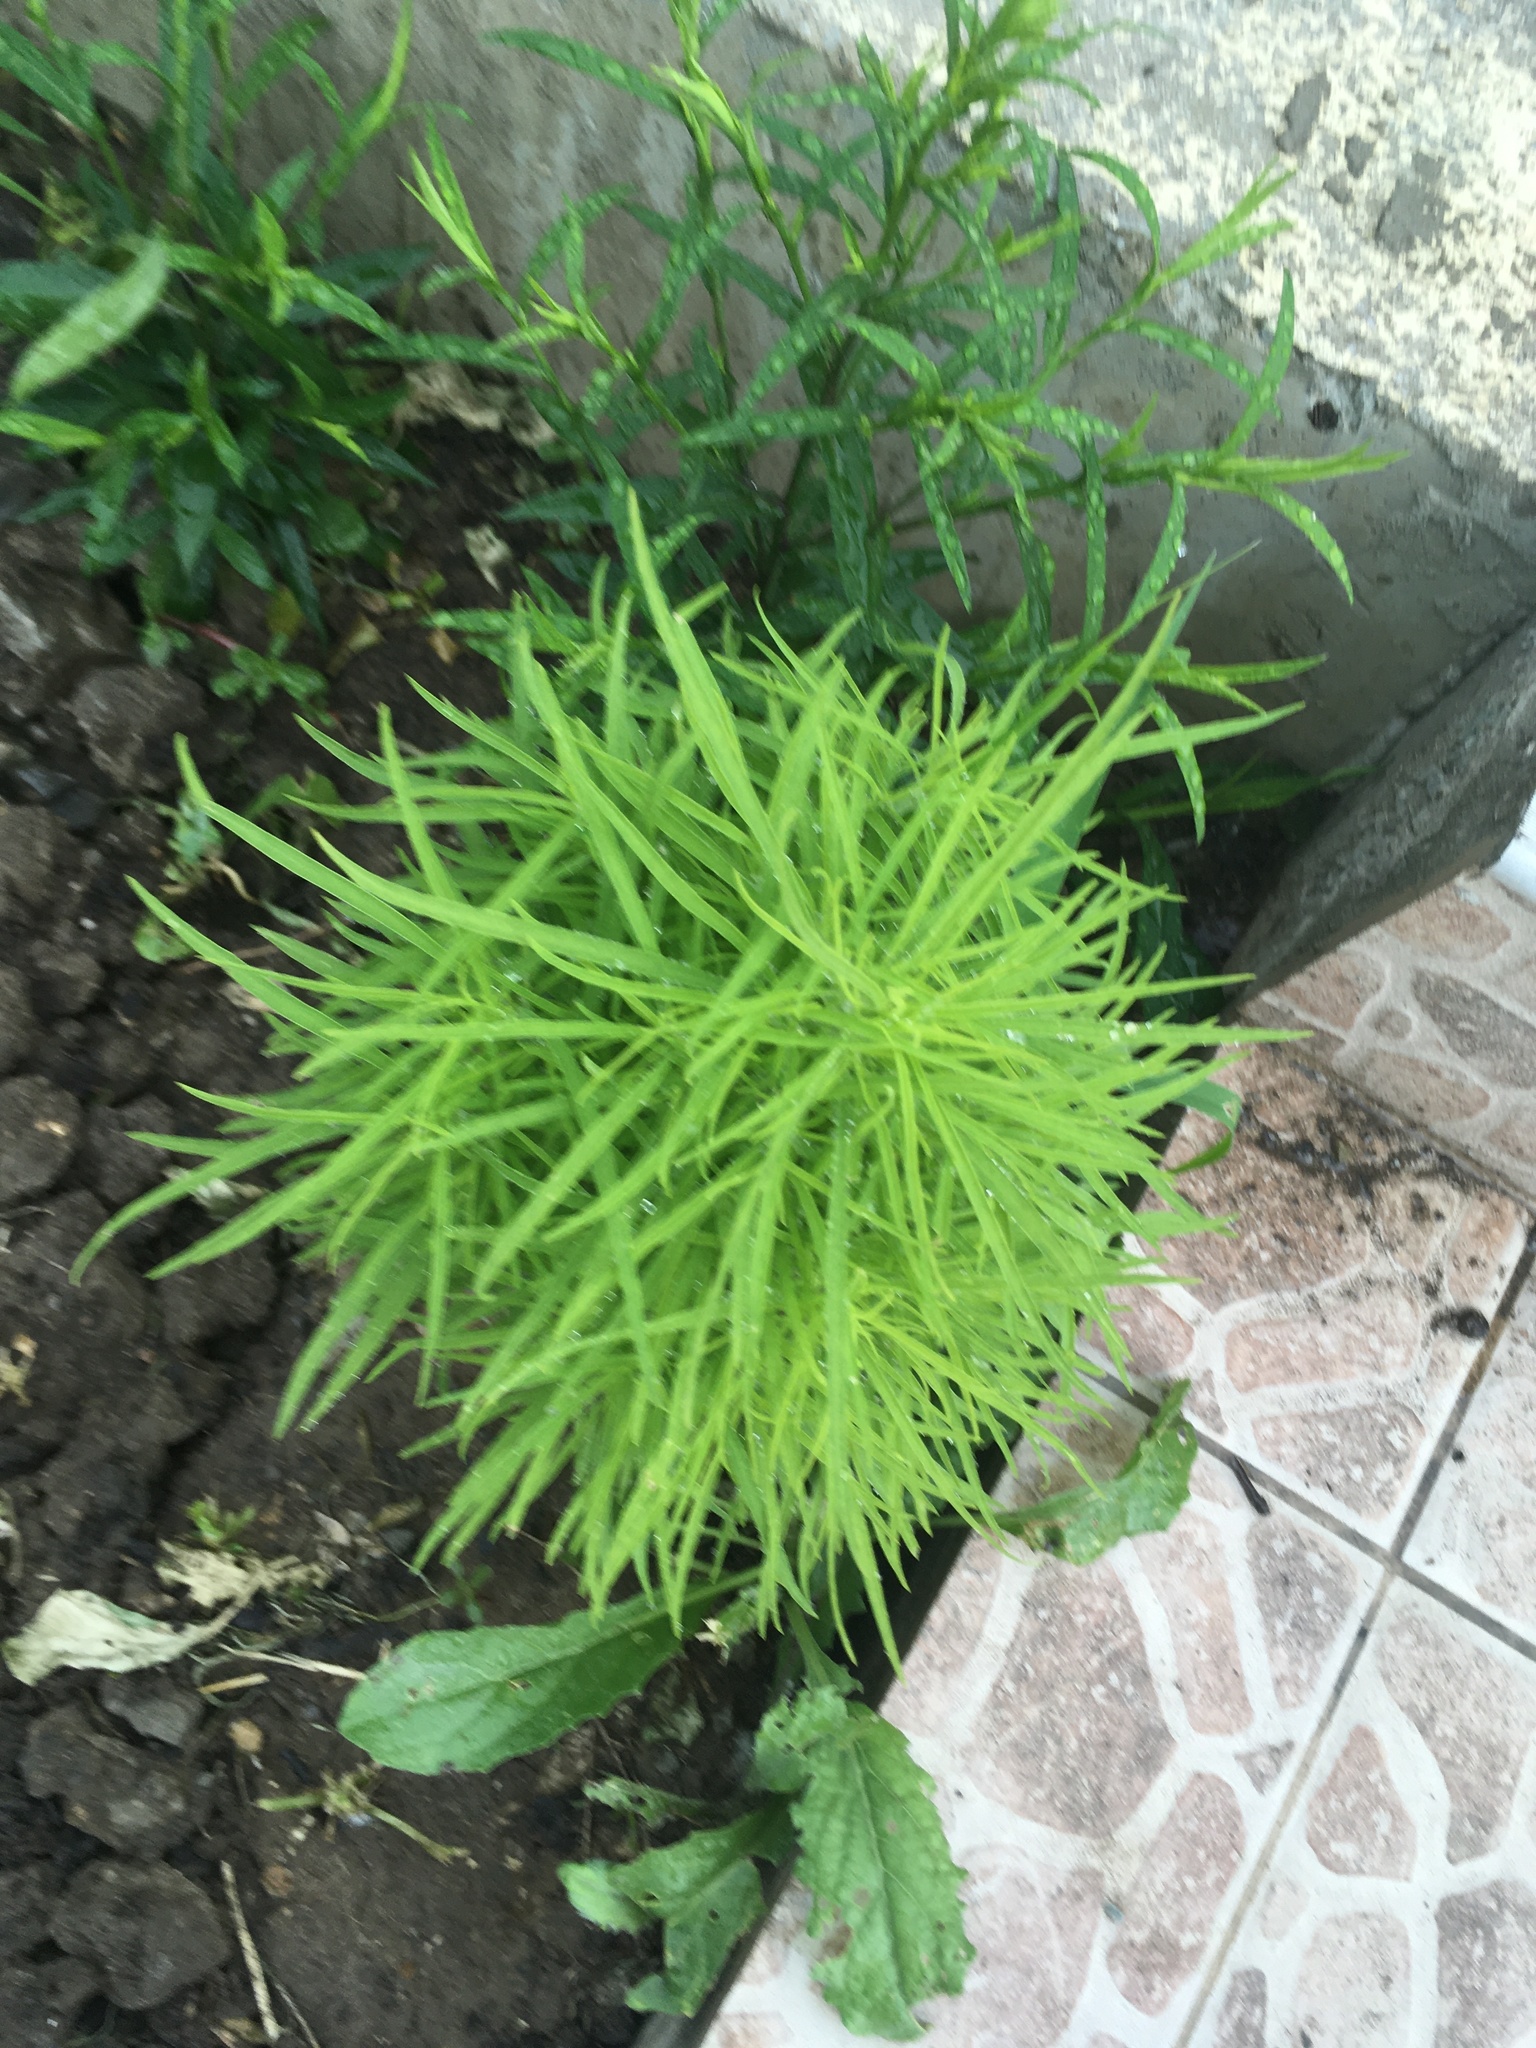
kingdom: Plantae
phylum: Tracheophyta
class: Magnoliopsida
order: Caryophyllales
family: Amaranthaceae
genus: Bassia
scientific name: Bassia scoparia
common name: Belvedere
